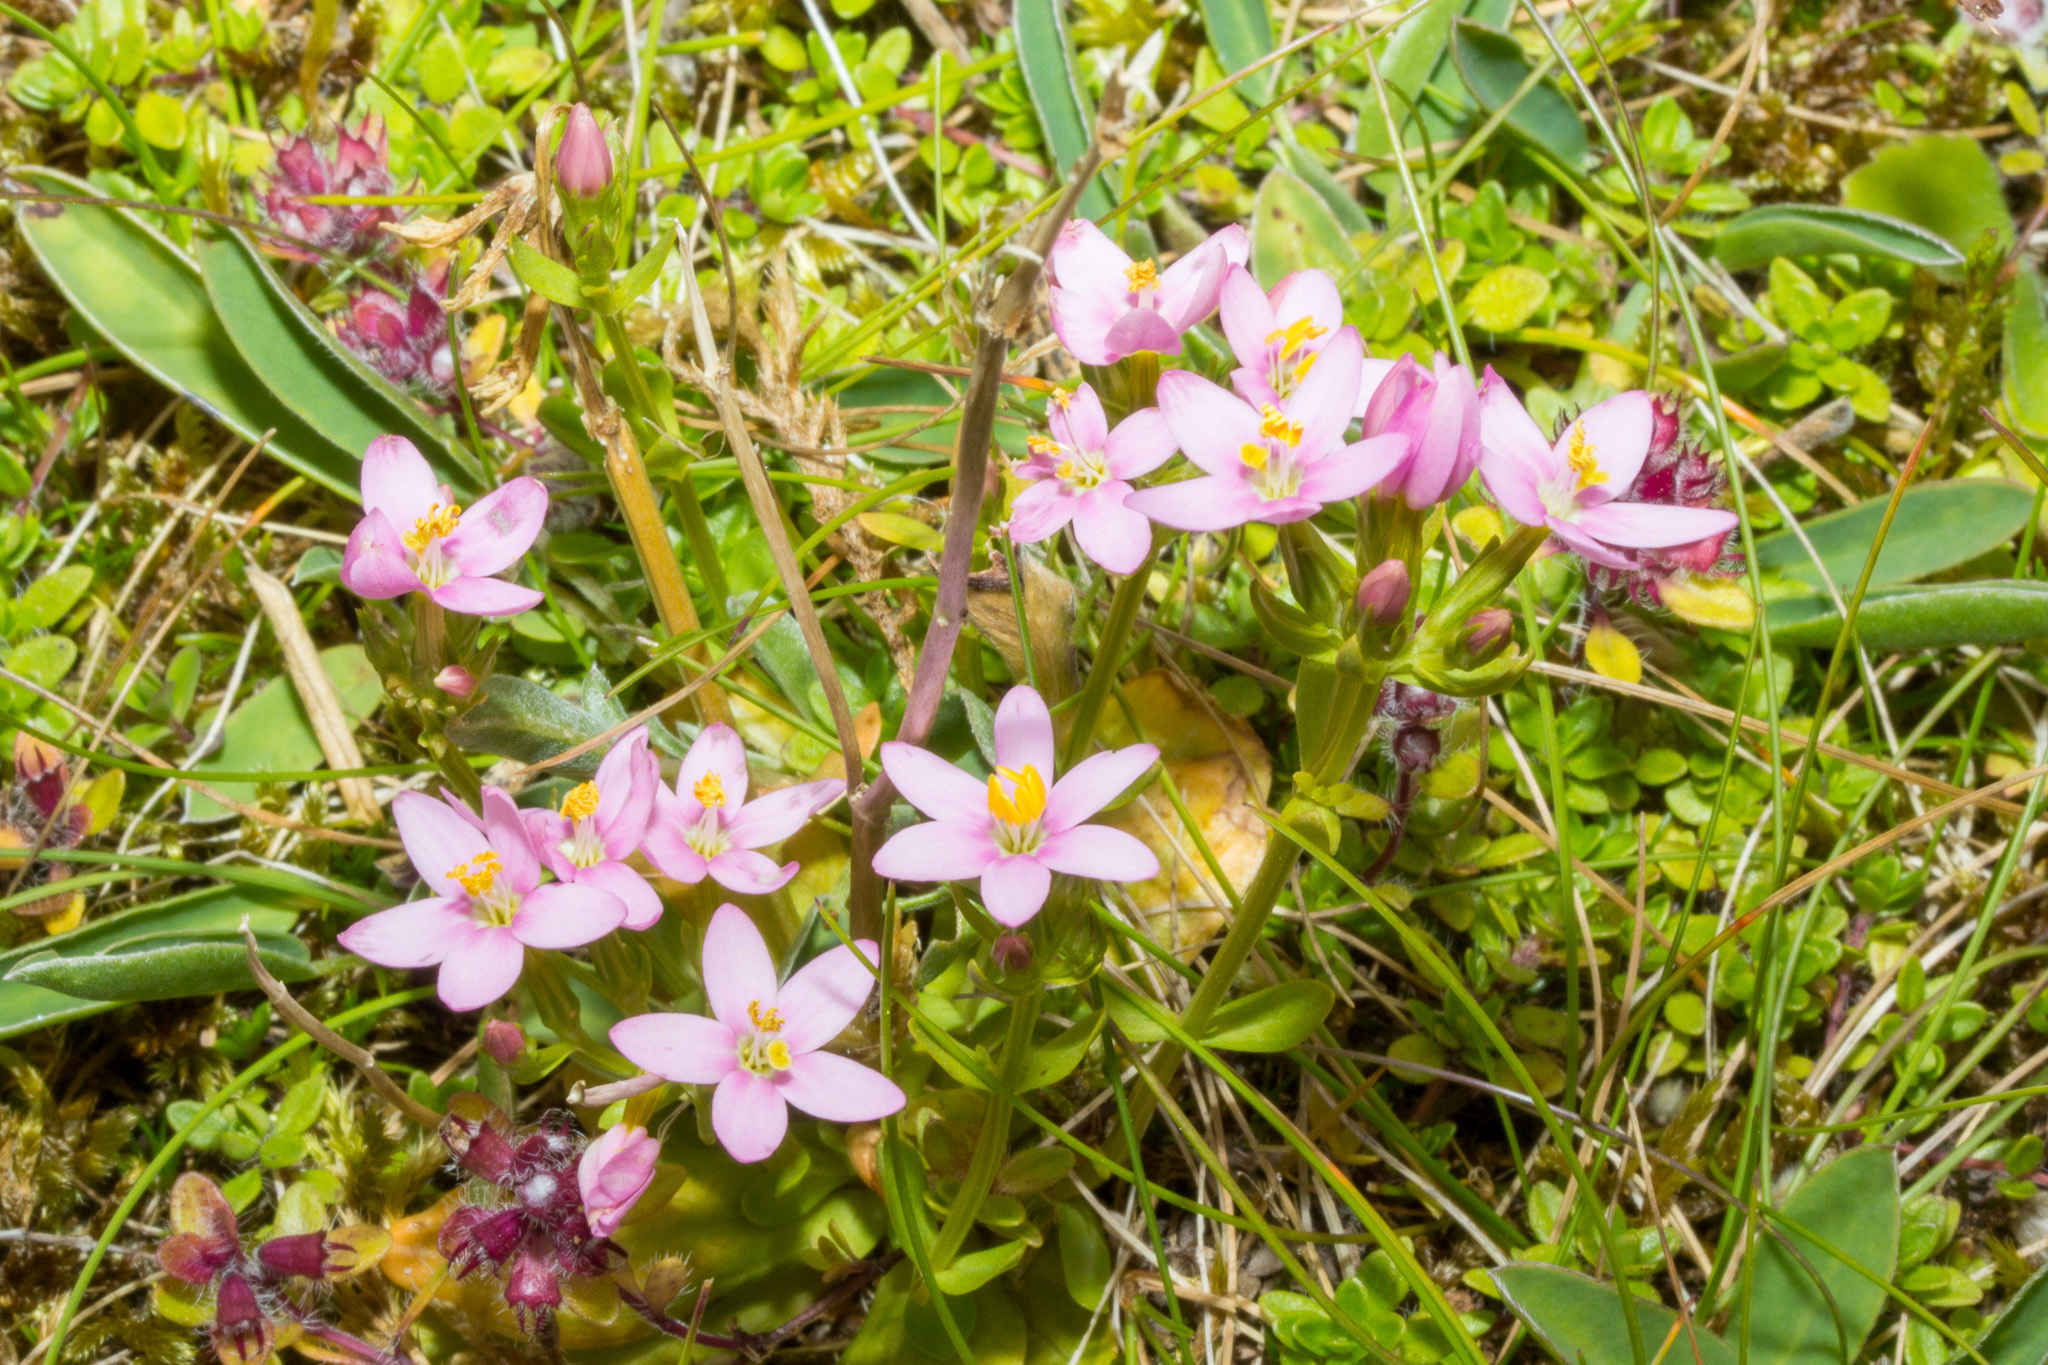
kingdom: Plantae
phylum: Tracheophyta
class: Magnoliopsida
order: Gentianales
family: Gentianaceae
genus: Centaurium
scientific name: Centaurium erythraea
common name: Common centaury
